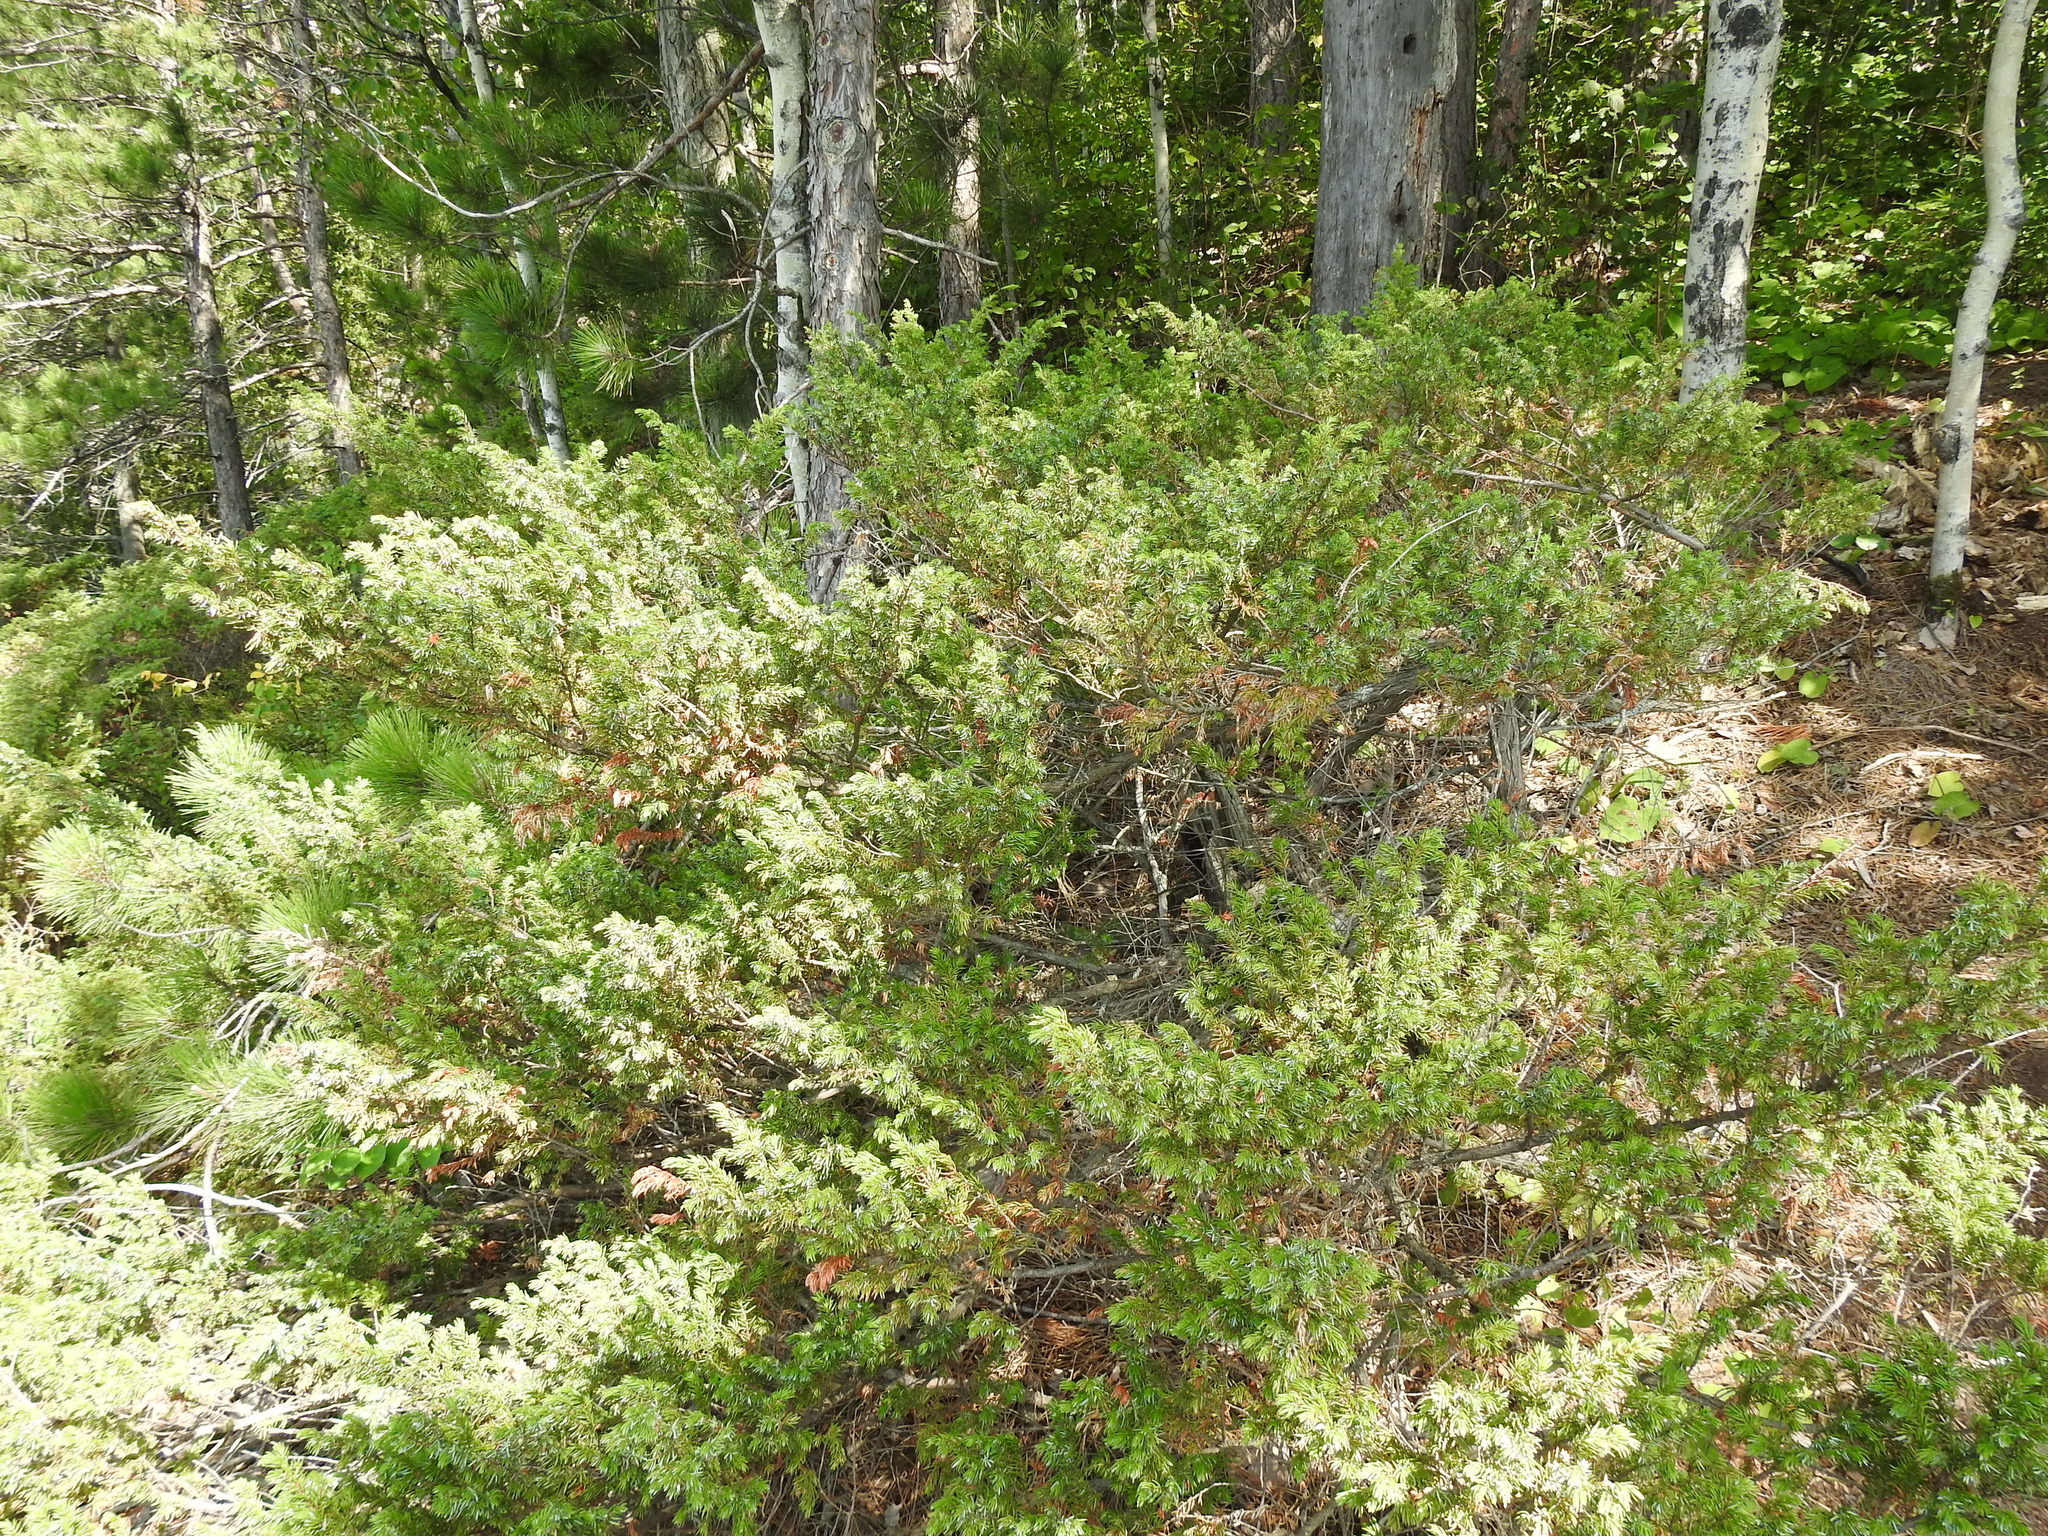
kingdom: Plantae
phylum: Tracheophyta
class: Pinopsida
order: Pinales
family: Cupressaceae
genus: Juniperus
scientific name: Juniperus communis
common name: Common juniper
